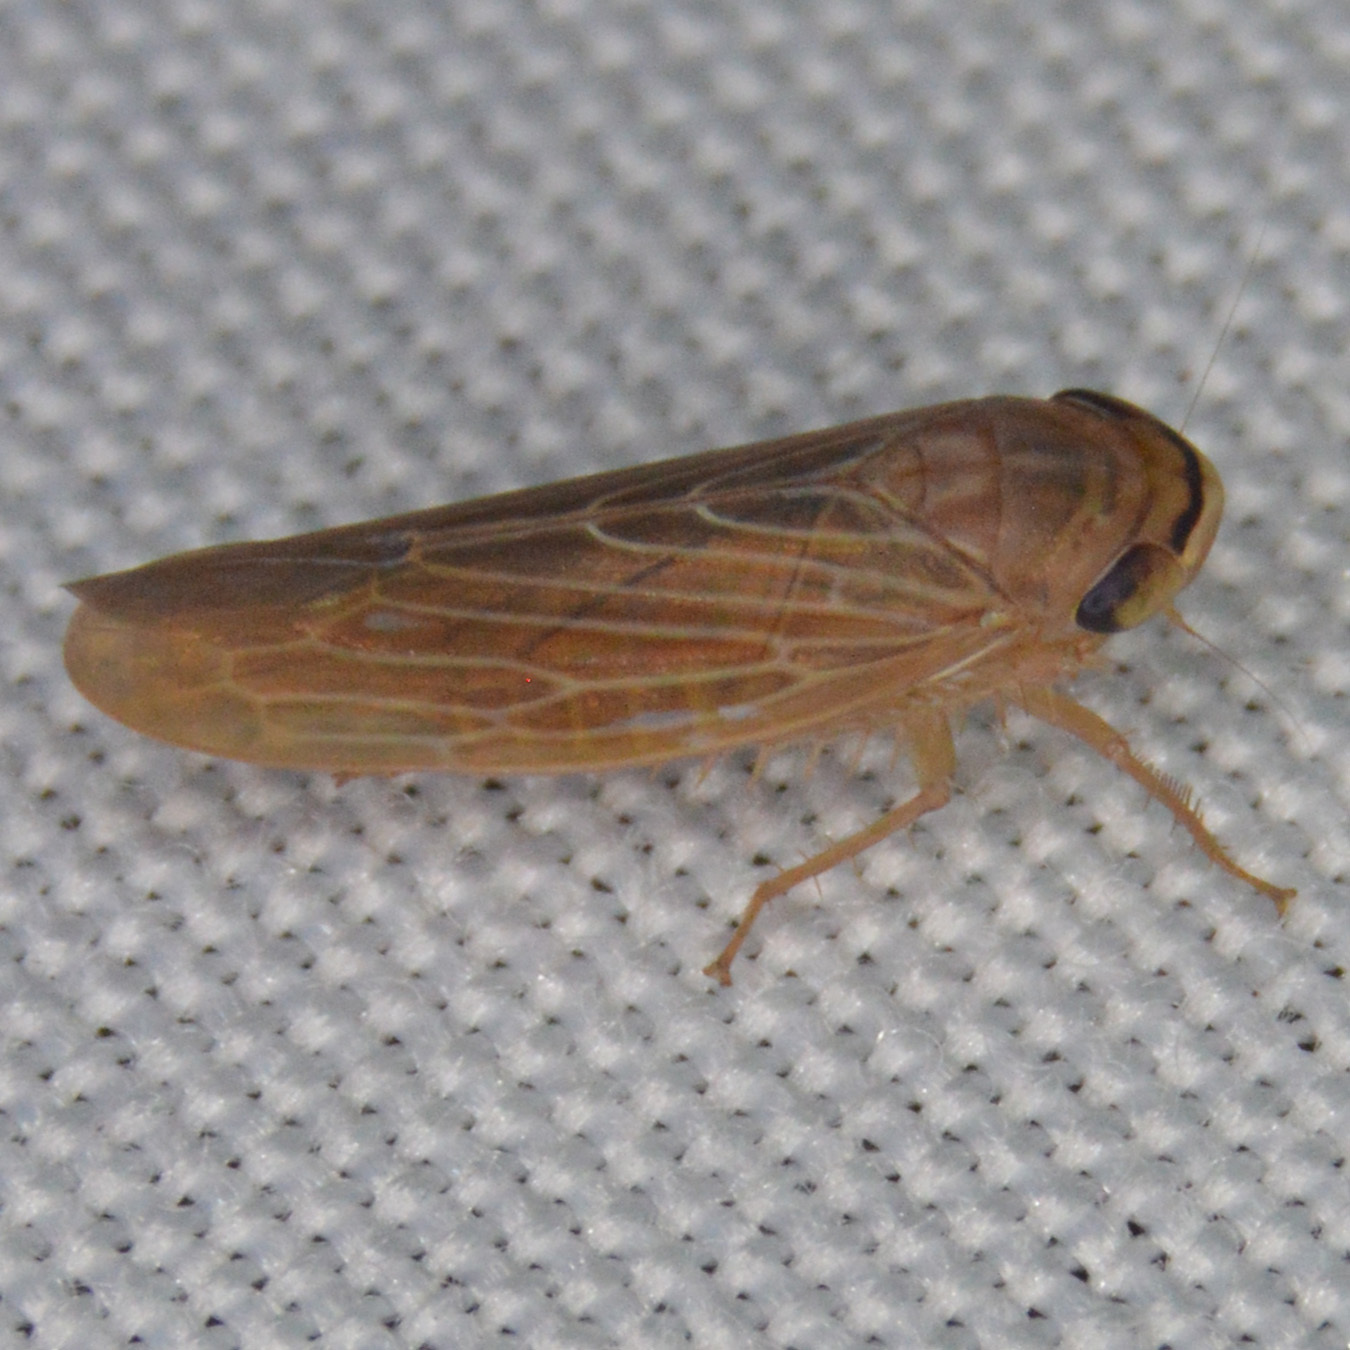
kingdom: Animalia
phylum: Arthropoda
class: Insecta
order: Hemiptera
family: Cicadellidae
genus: Chlorotettix
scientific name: Chlorotettix necopinus
